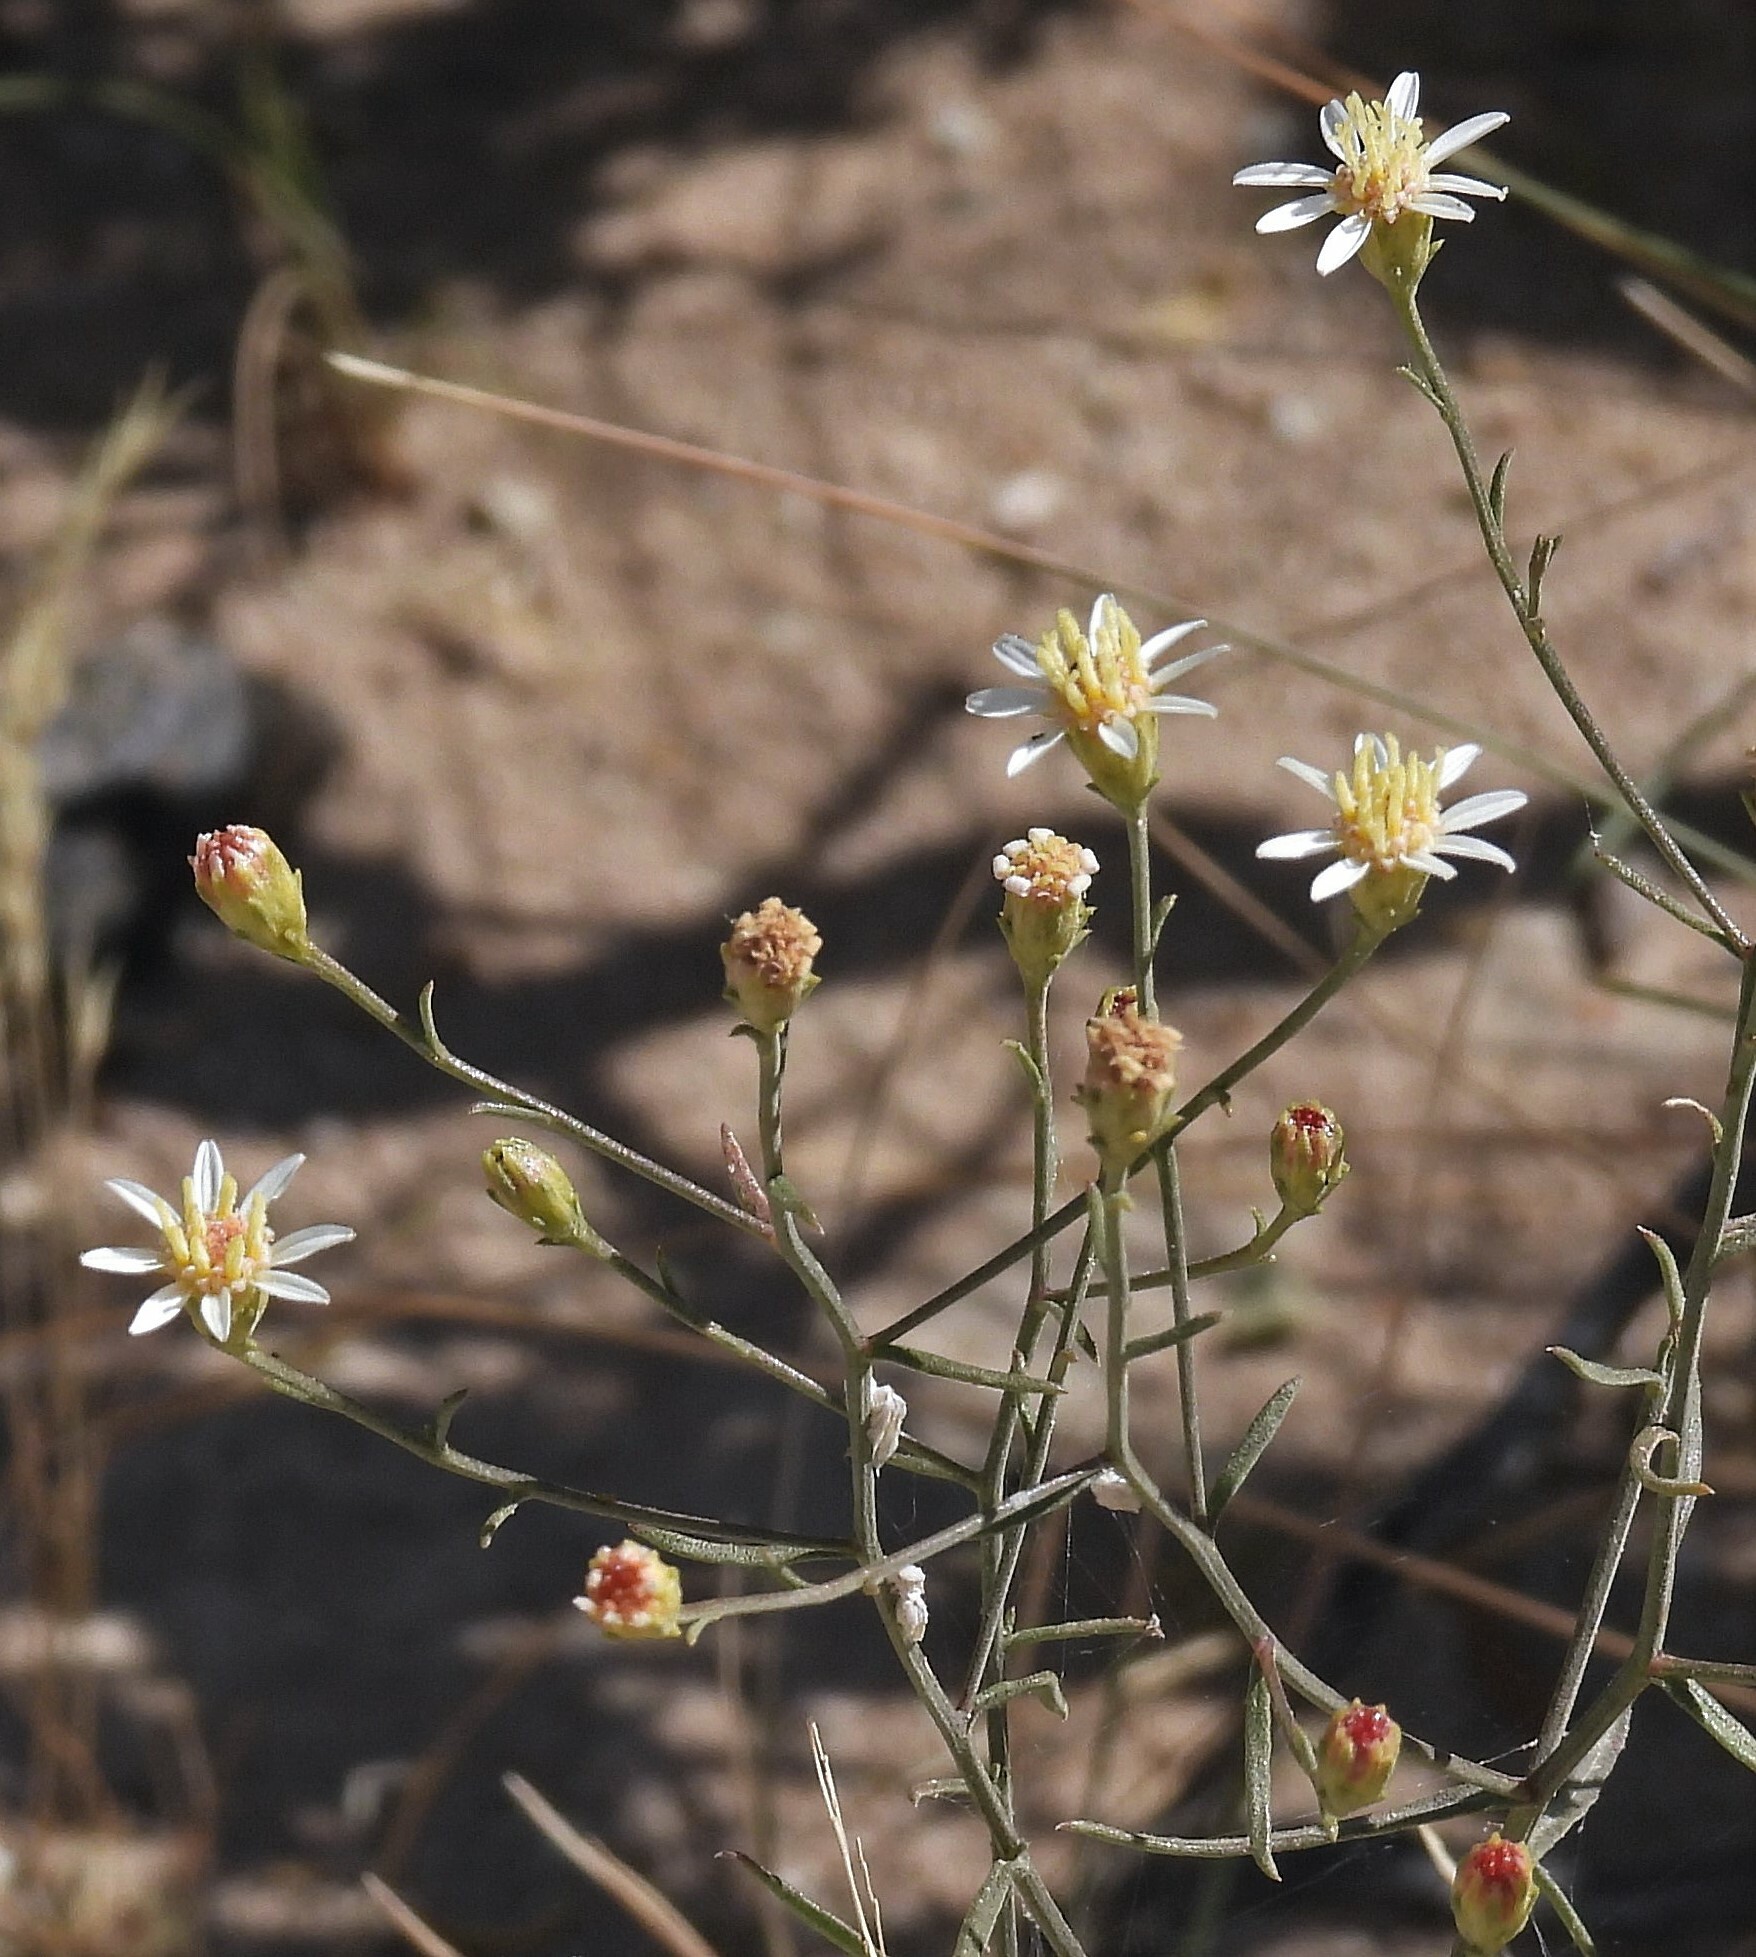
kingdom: Plantae
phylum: Tracheophyta
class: Magnoliopsida
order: Asterales
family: Asteraceae
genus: Gutierrezia
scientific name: Gutierrezia gilliesii
